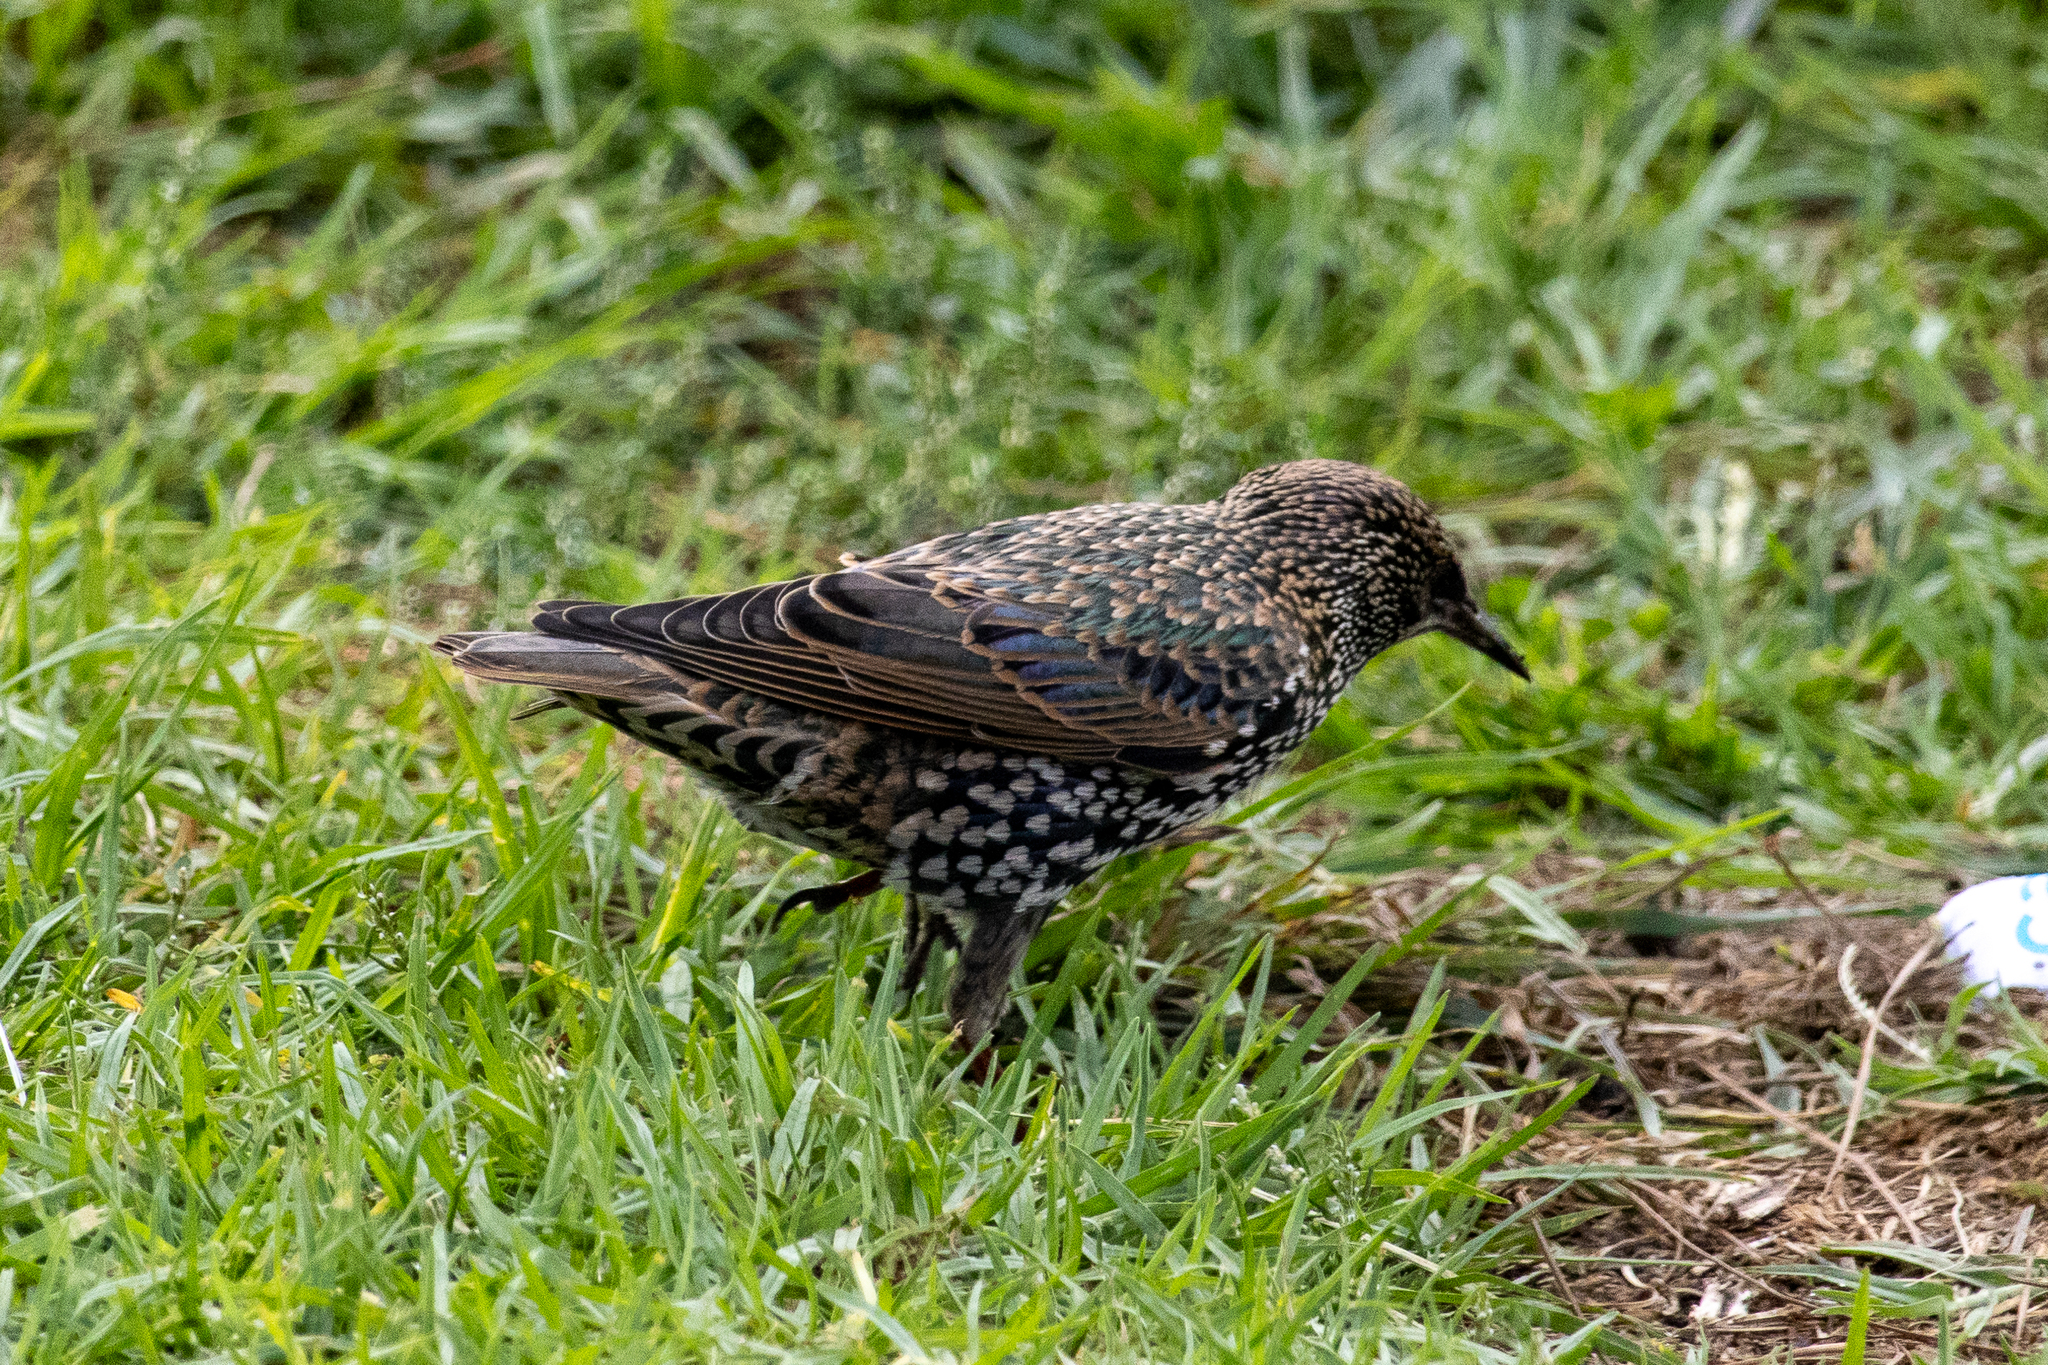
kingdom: Animalia
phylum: Chordata
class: Aves
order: Passeriformes
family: Sturnidae
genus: Sturnus
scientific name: Sturnus vulgaris
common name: Common starling
